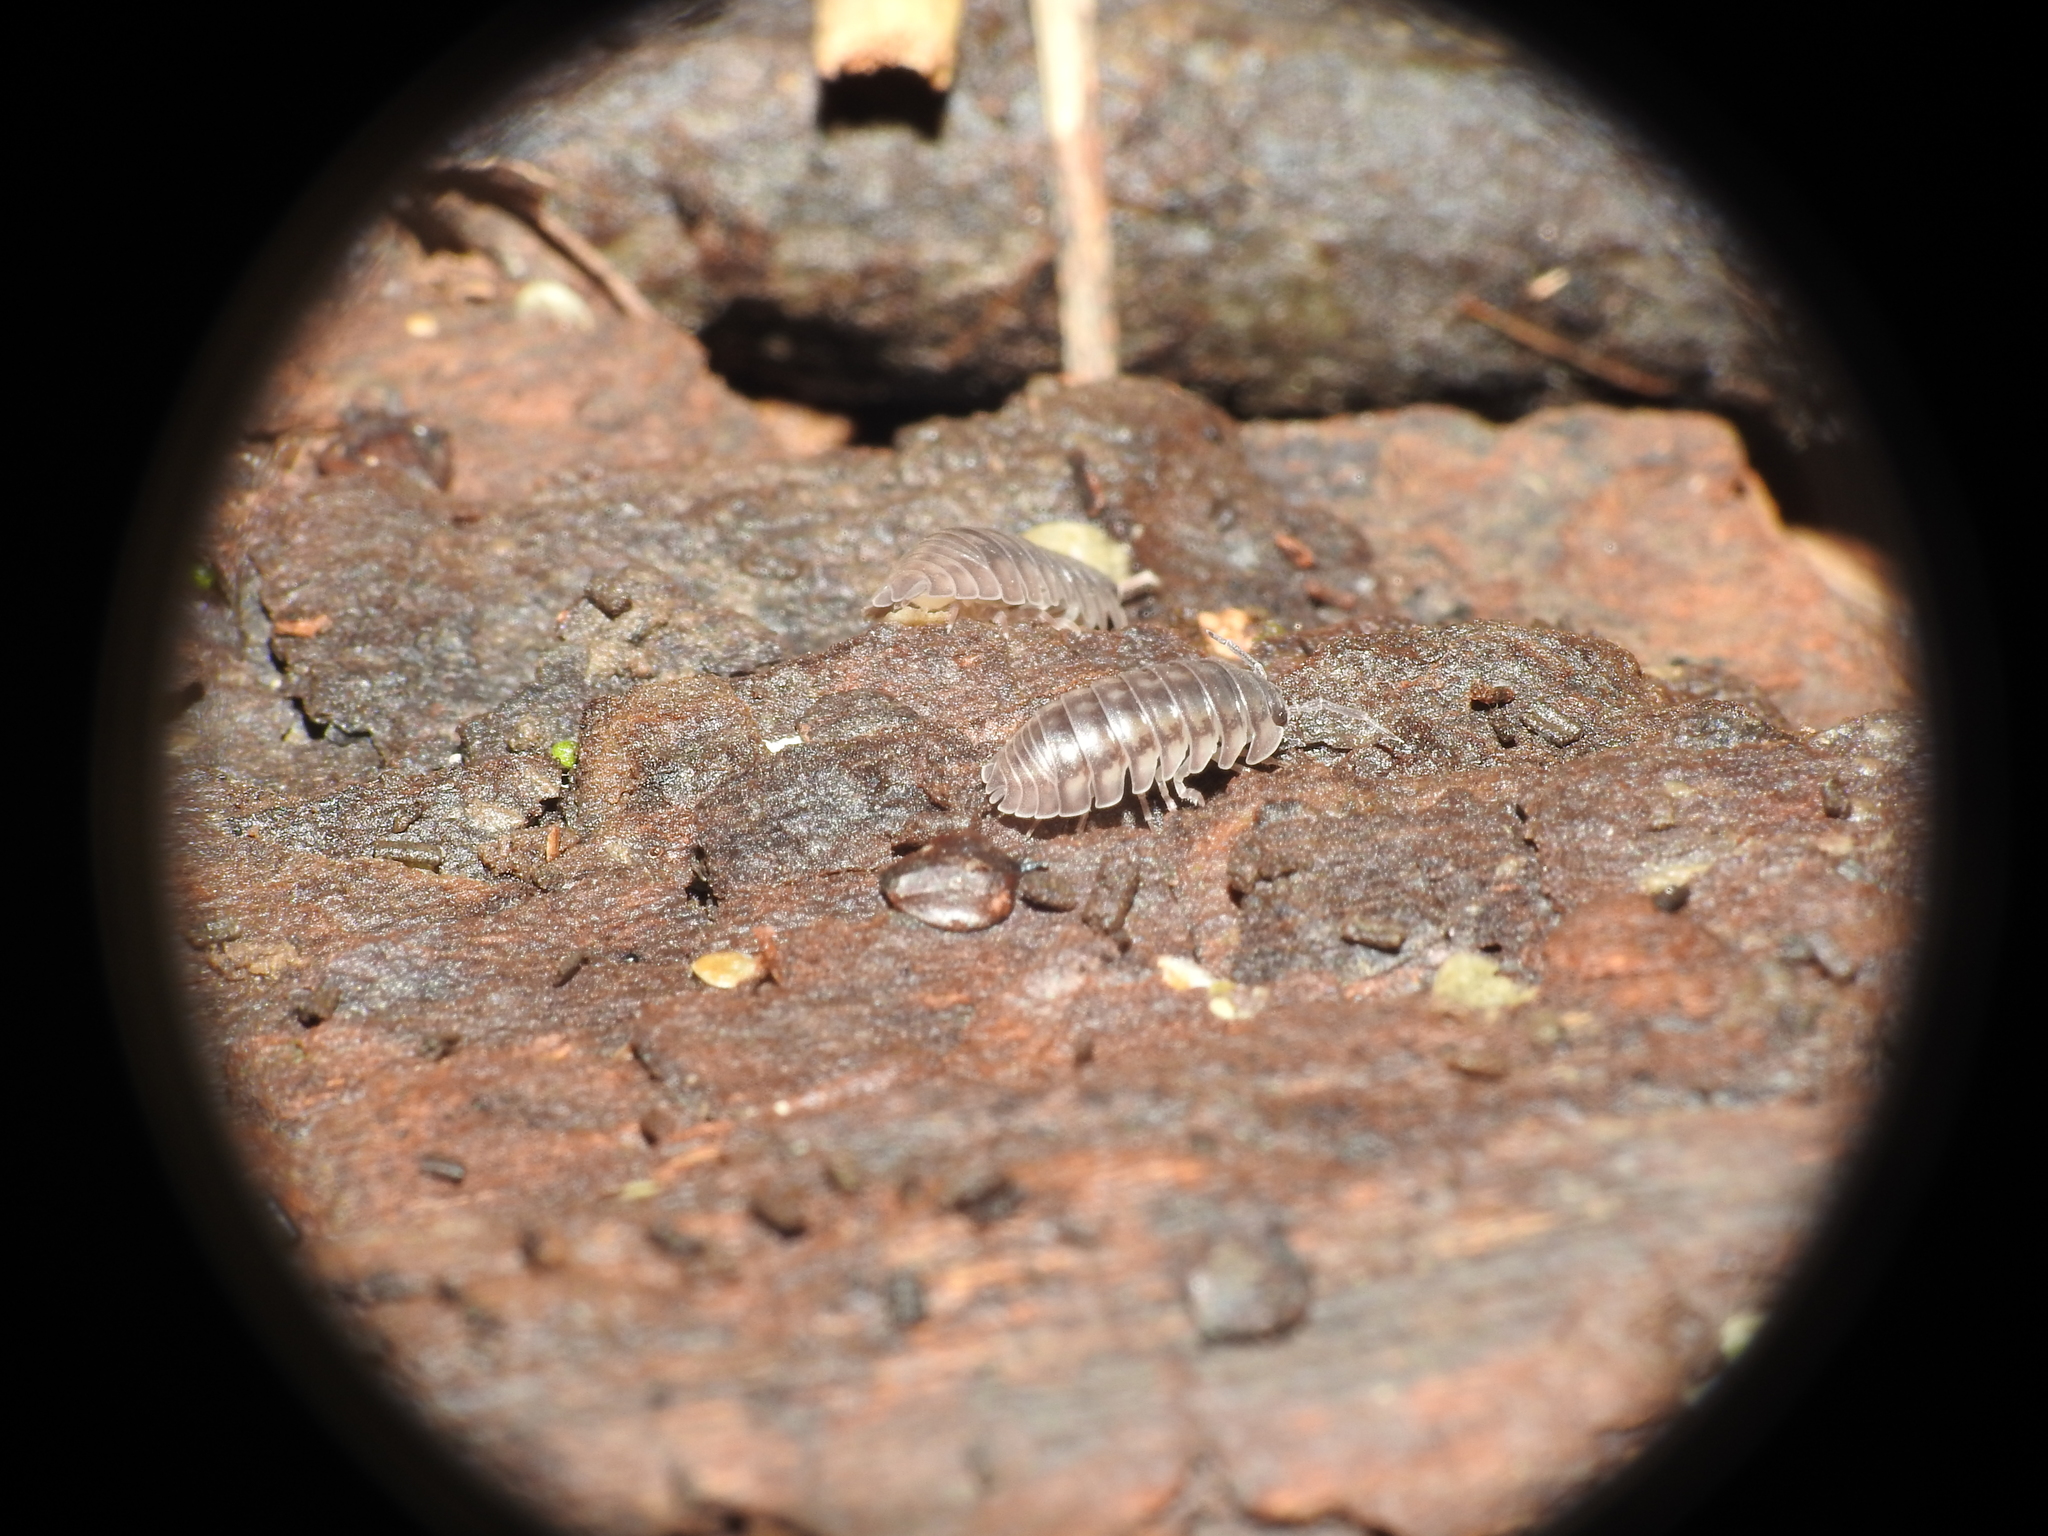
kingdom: Animalia
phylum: Arthropoda
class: Malacostraca
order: Isopoda
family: Armadillidiidae
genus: Armadillidium
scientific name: Armadillidium nasatum
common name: Isopod
